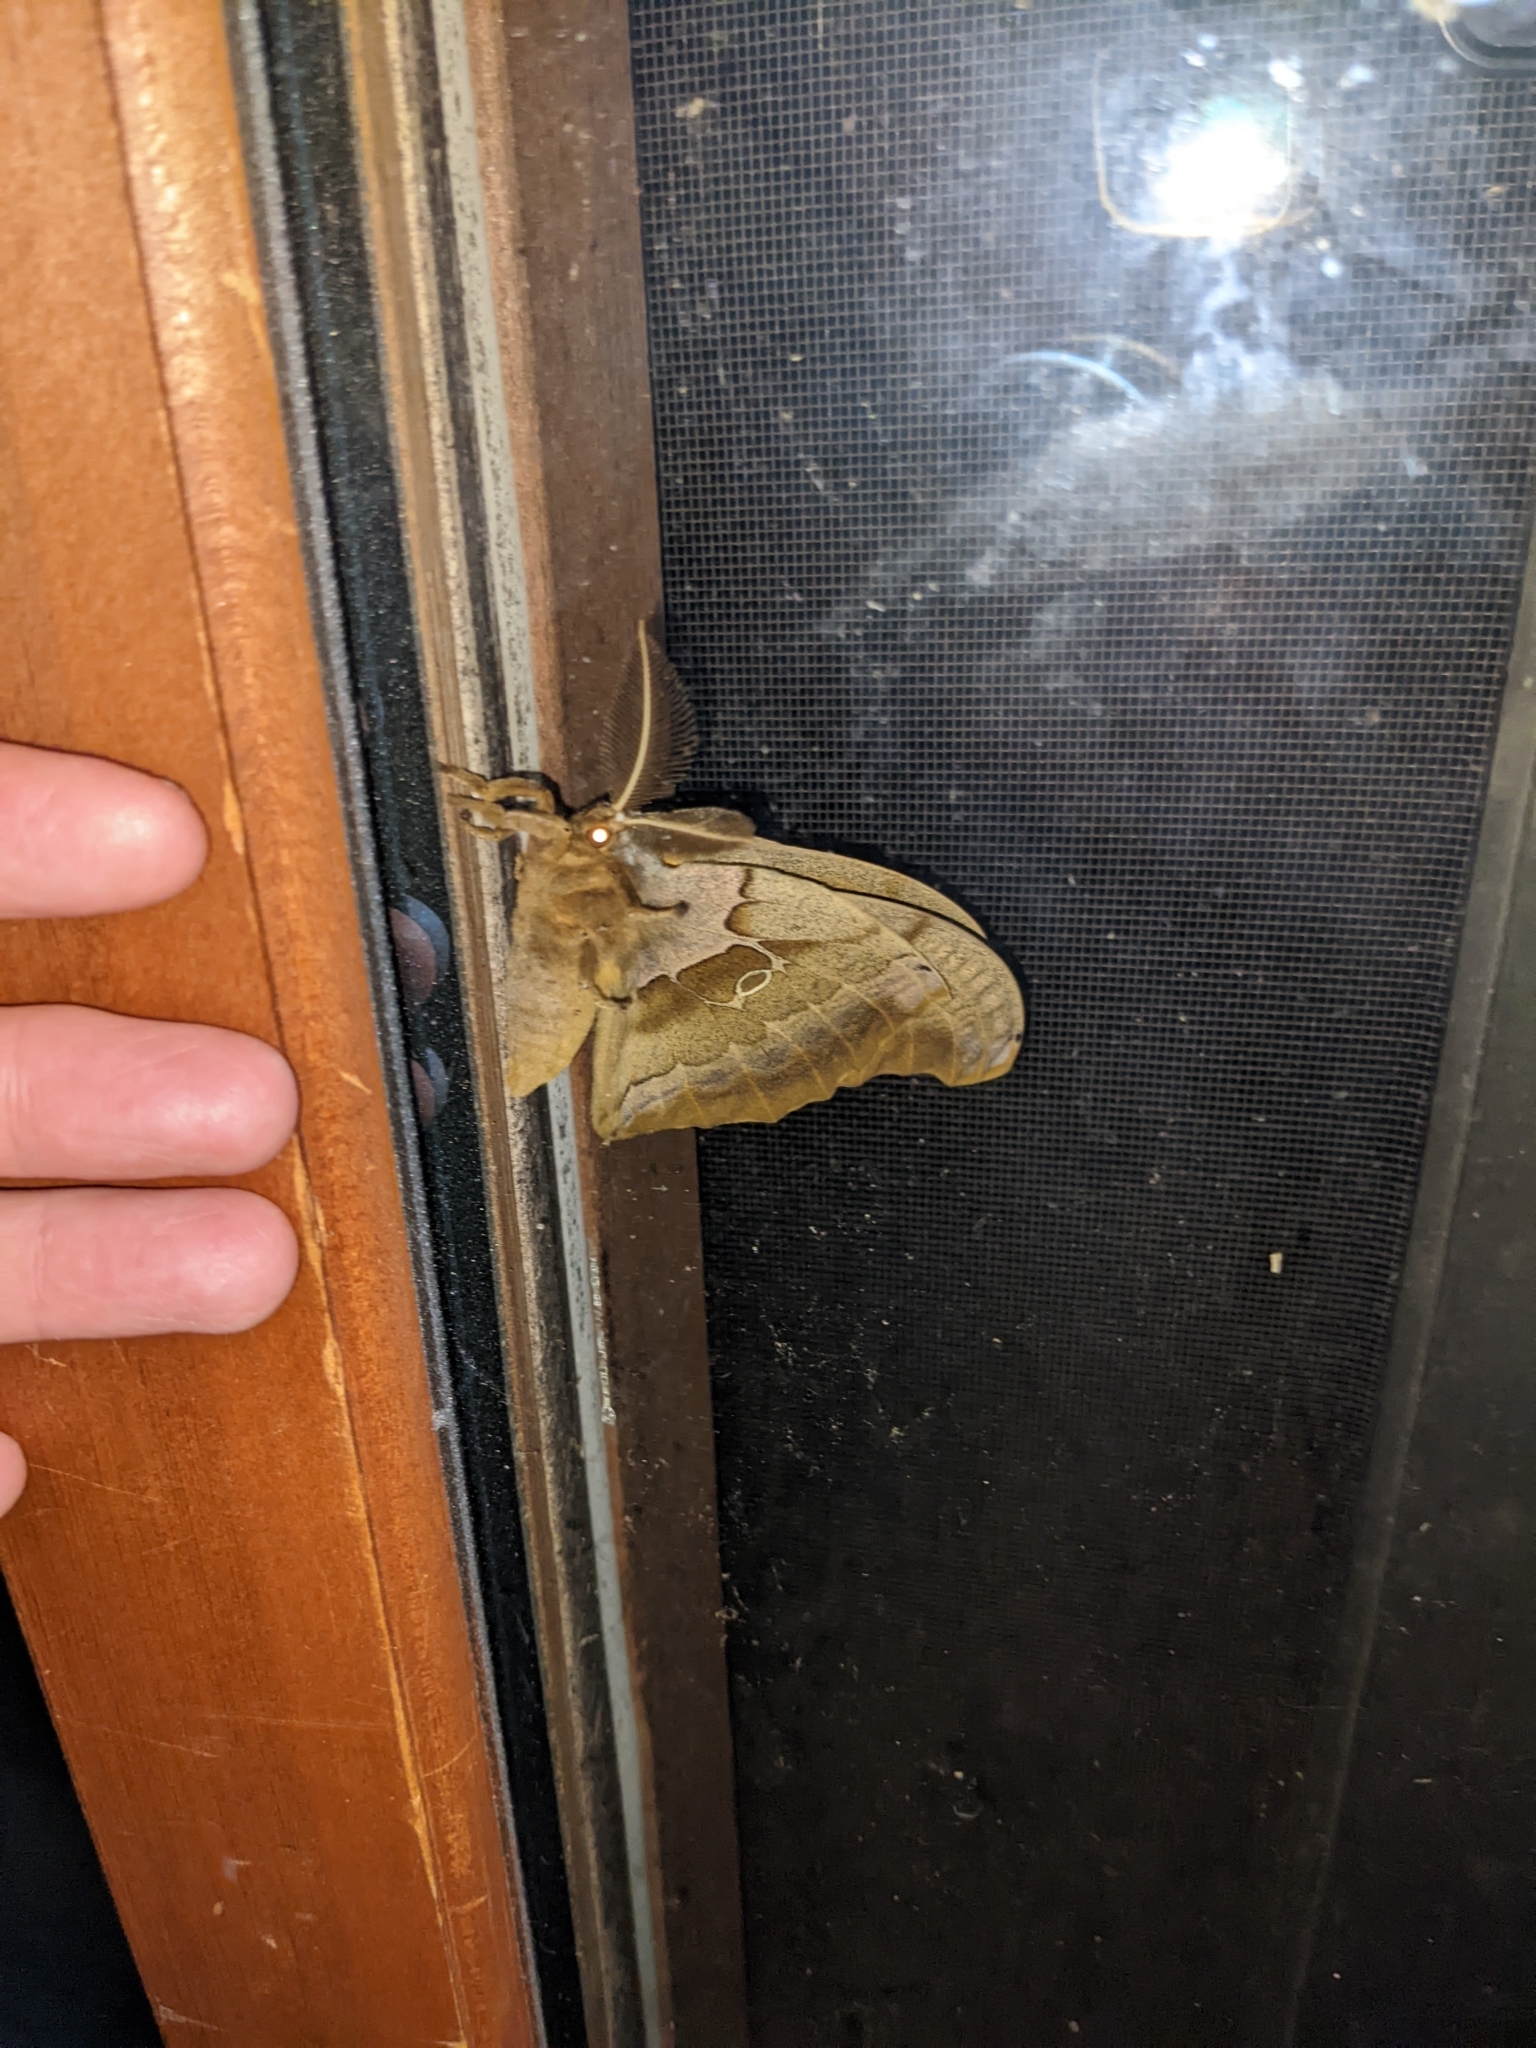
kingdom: Animalia
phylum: Arthropoda
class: Insecta
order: Lepidoptera
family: Saturniidae
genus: Antheraea
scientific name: Antheraea polyphemus
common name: Polyphemus moth
